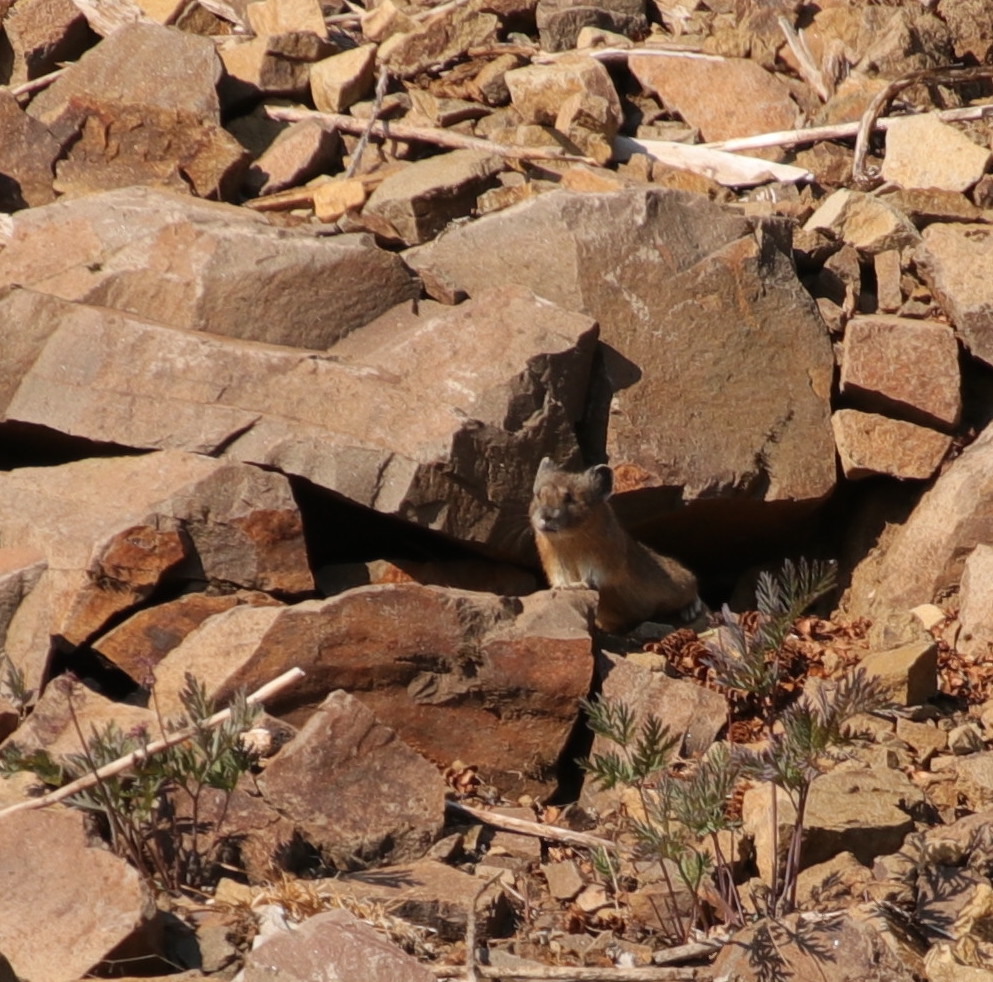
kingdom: Animalia
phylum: Chordata
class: Mammalia
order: Lagomorpha
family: Ochotonidae
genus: Ochotona
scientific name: Ochotona princeps
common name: American pika
